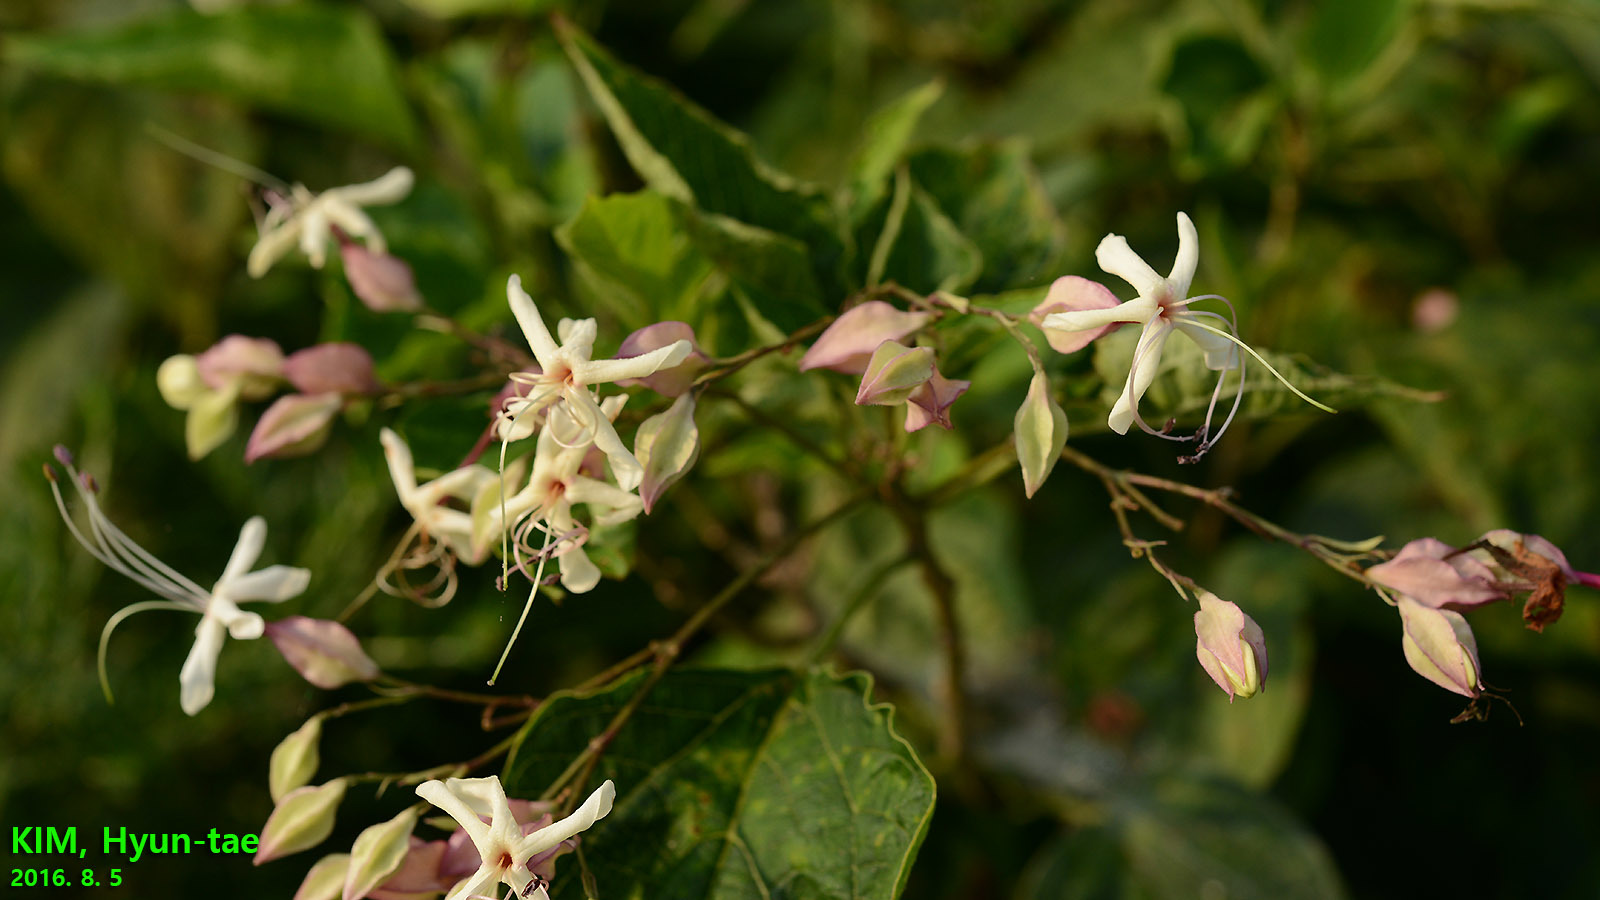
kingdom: Plantae
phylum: Tracheophyta
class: Magnoliopsida
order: Lamiales
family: Lamiaceae
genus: Clerodendrum
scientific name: Clerodendrum trichotomum
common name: Harlequin glorybower
